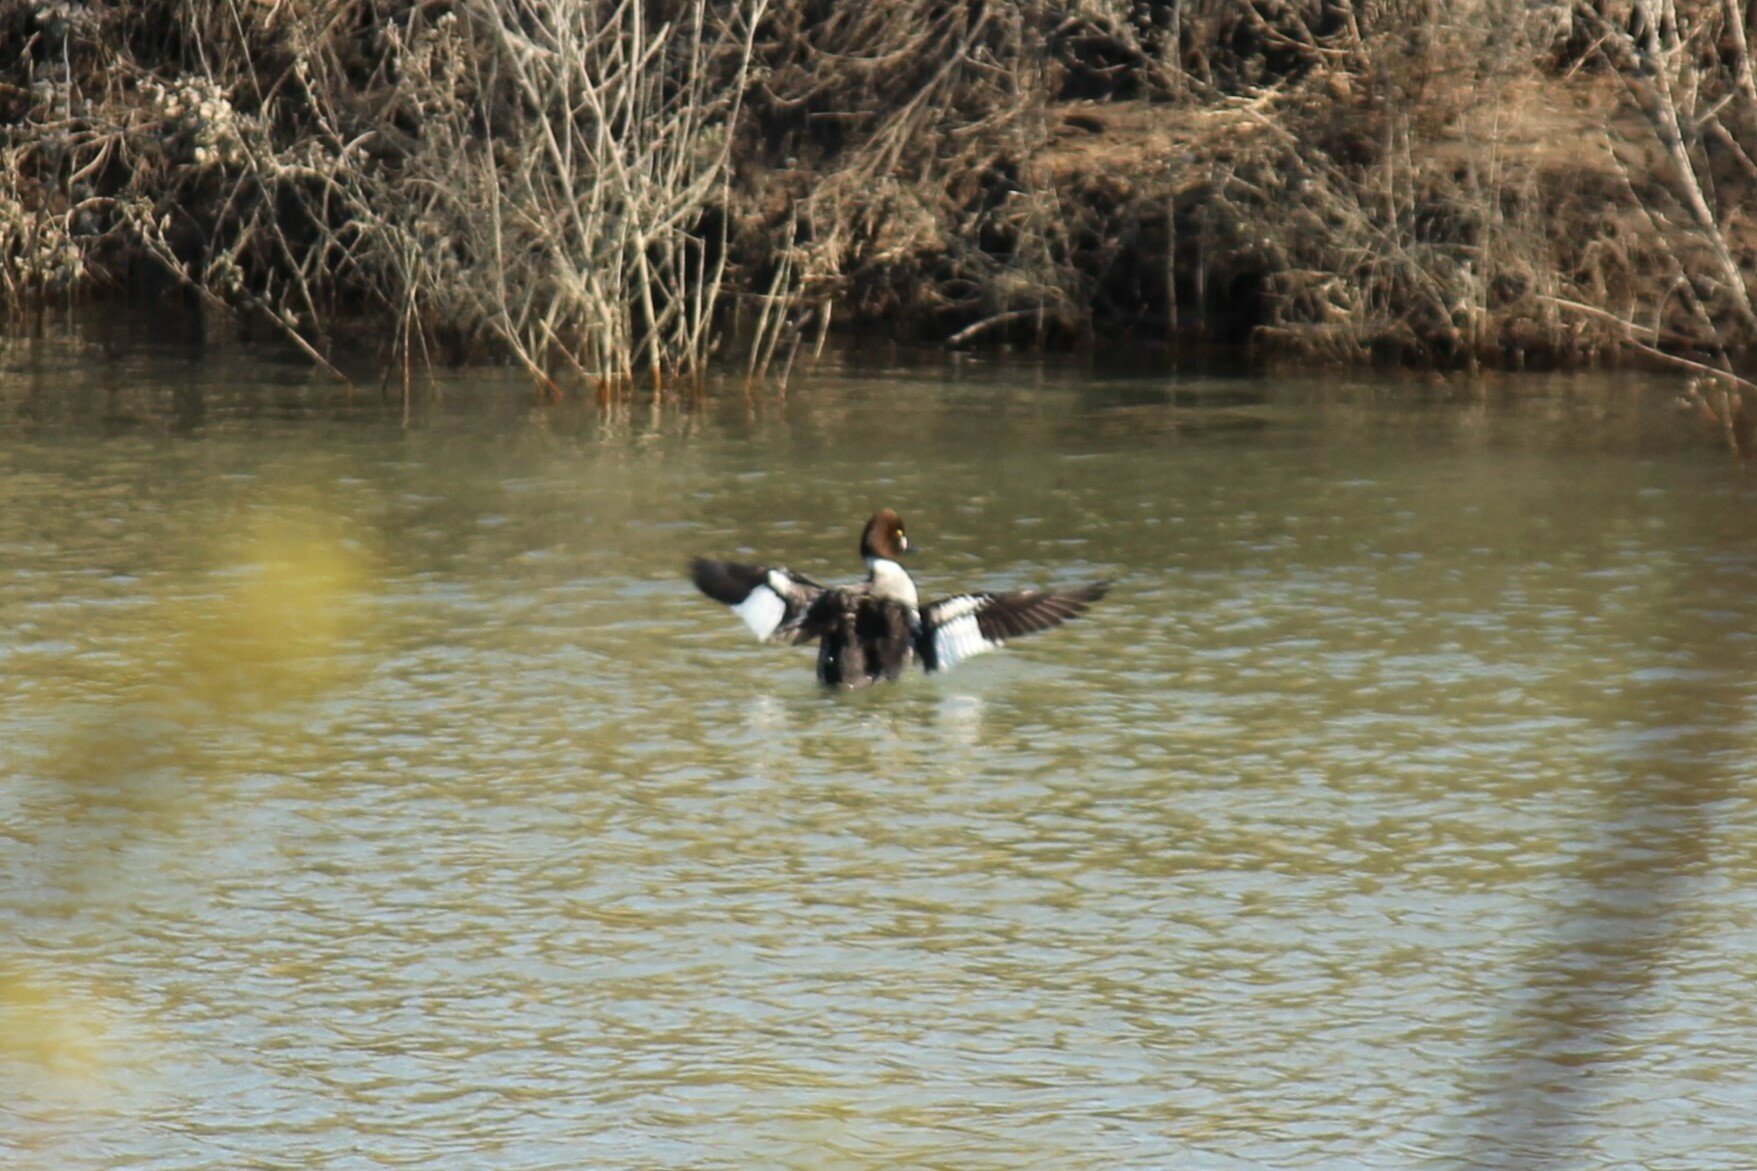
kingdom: Animalia
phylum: Chordata
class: Aves
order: Anseriformes
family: Anatidae
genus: Bucephala
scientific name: Bucephala clangula
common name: Common goldeneye
